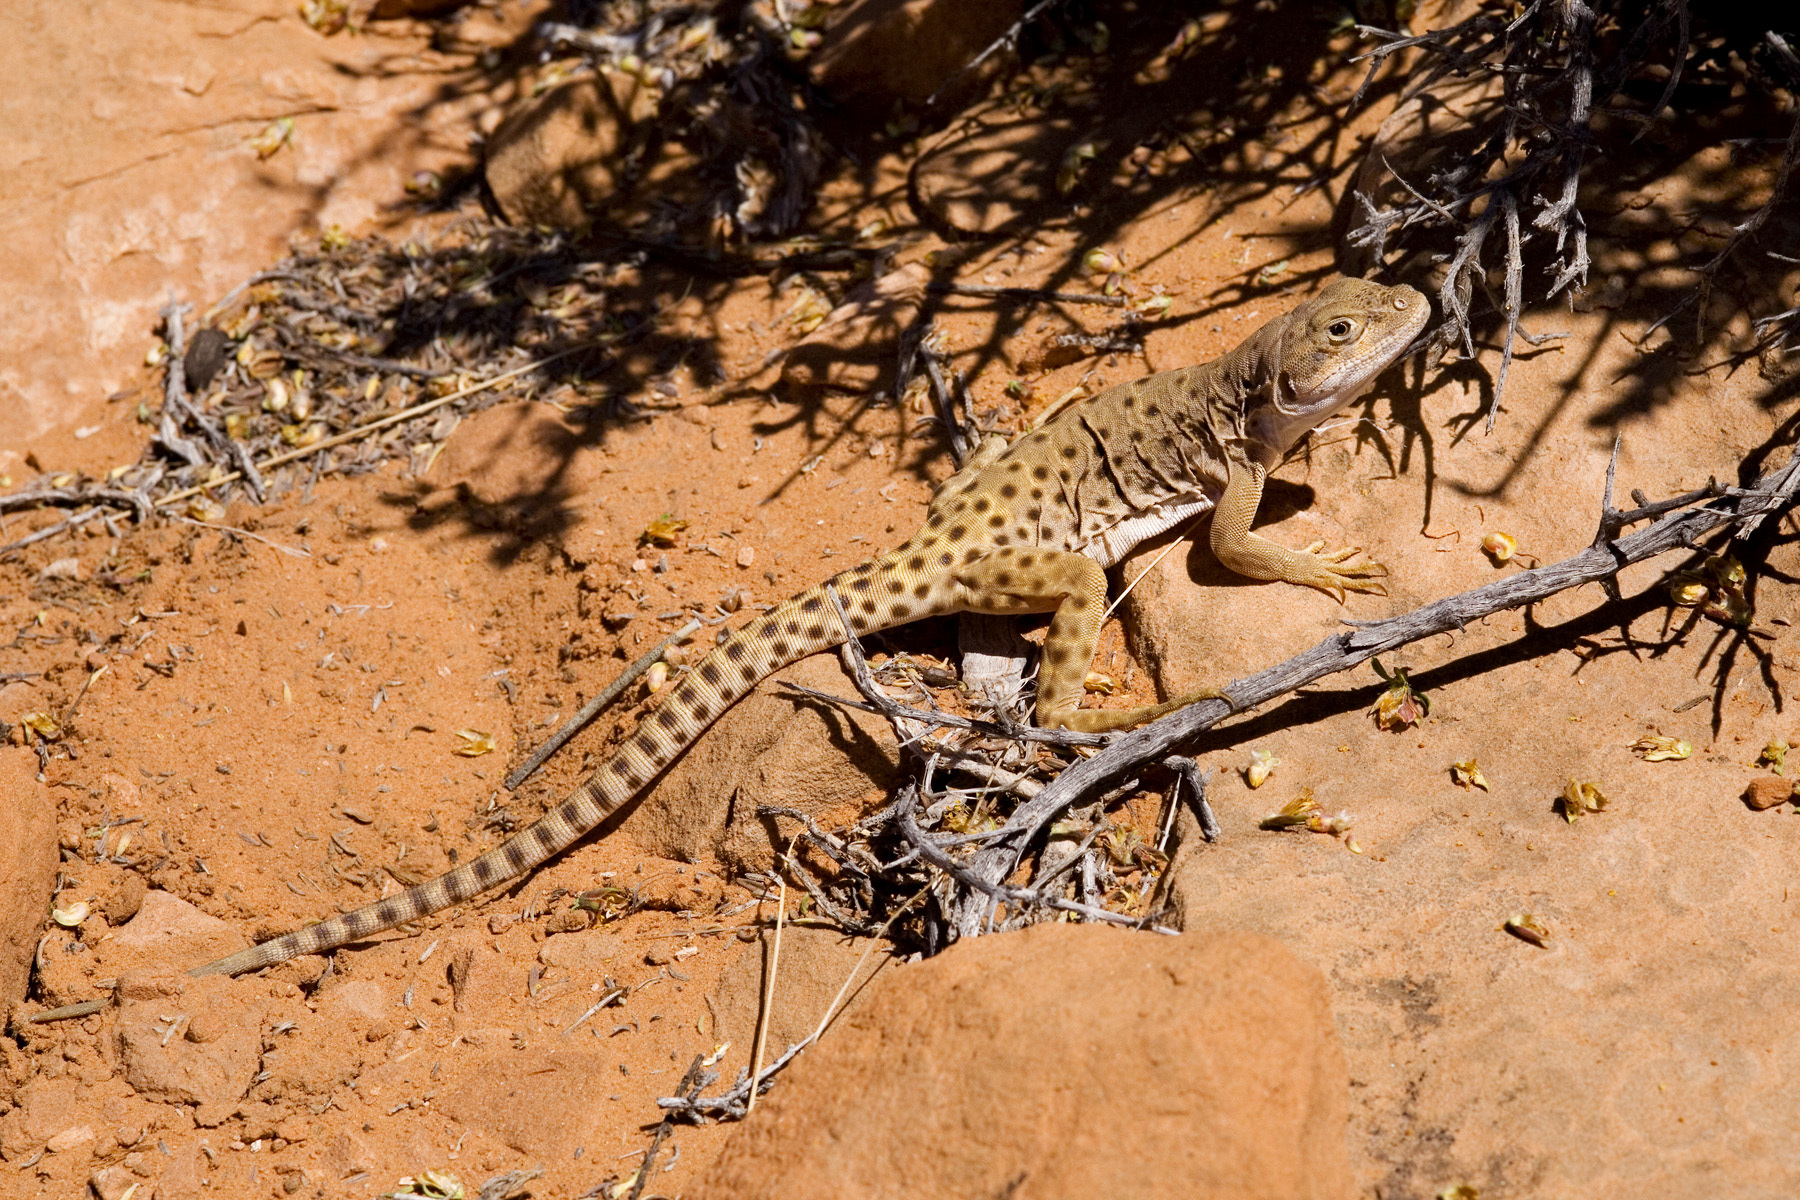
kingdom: Animalia
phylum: Chordata
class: Squamata
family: Crotaphytidae
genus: Gambelia
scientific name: Gambelia wislizenii
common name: Longnose leopard lizard
